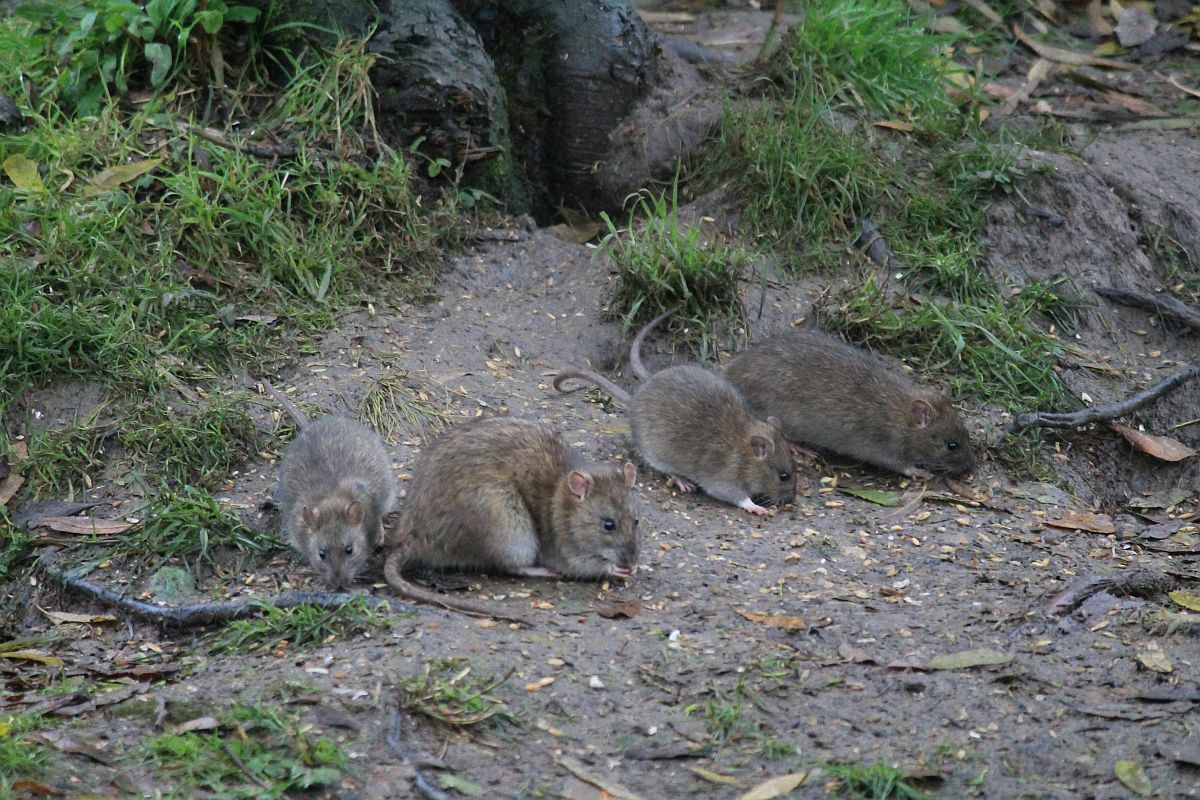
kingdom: Animalia
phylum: Chordata
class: Mammalia
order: Rodentia
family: Muridae
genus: Rattus
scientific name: Rattus norvegicus
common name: Brown rat
